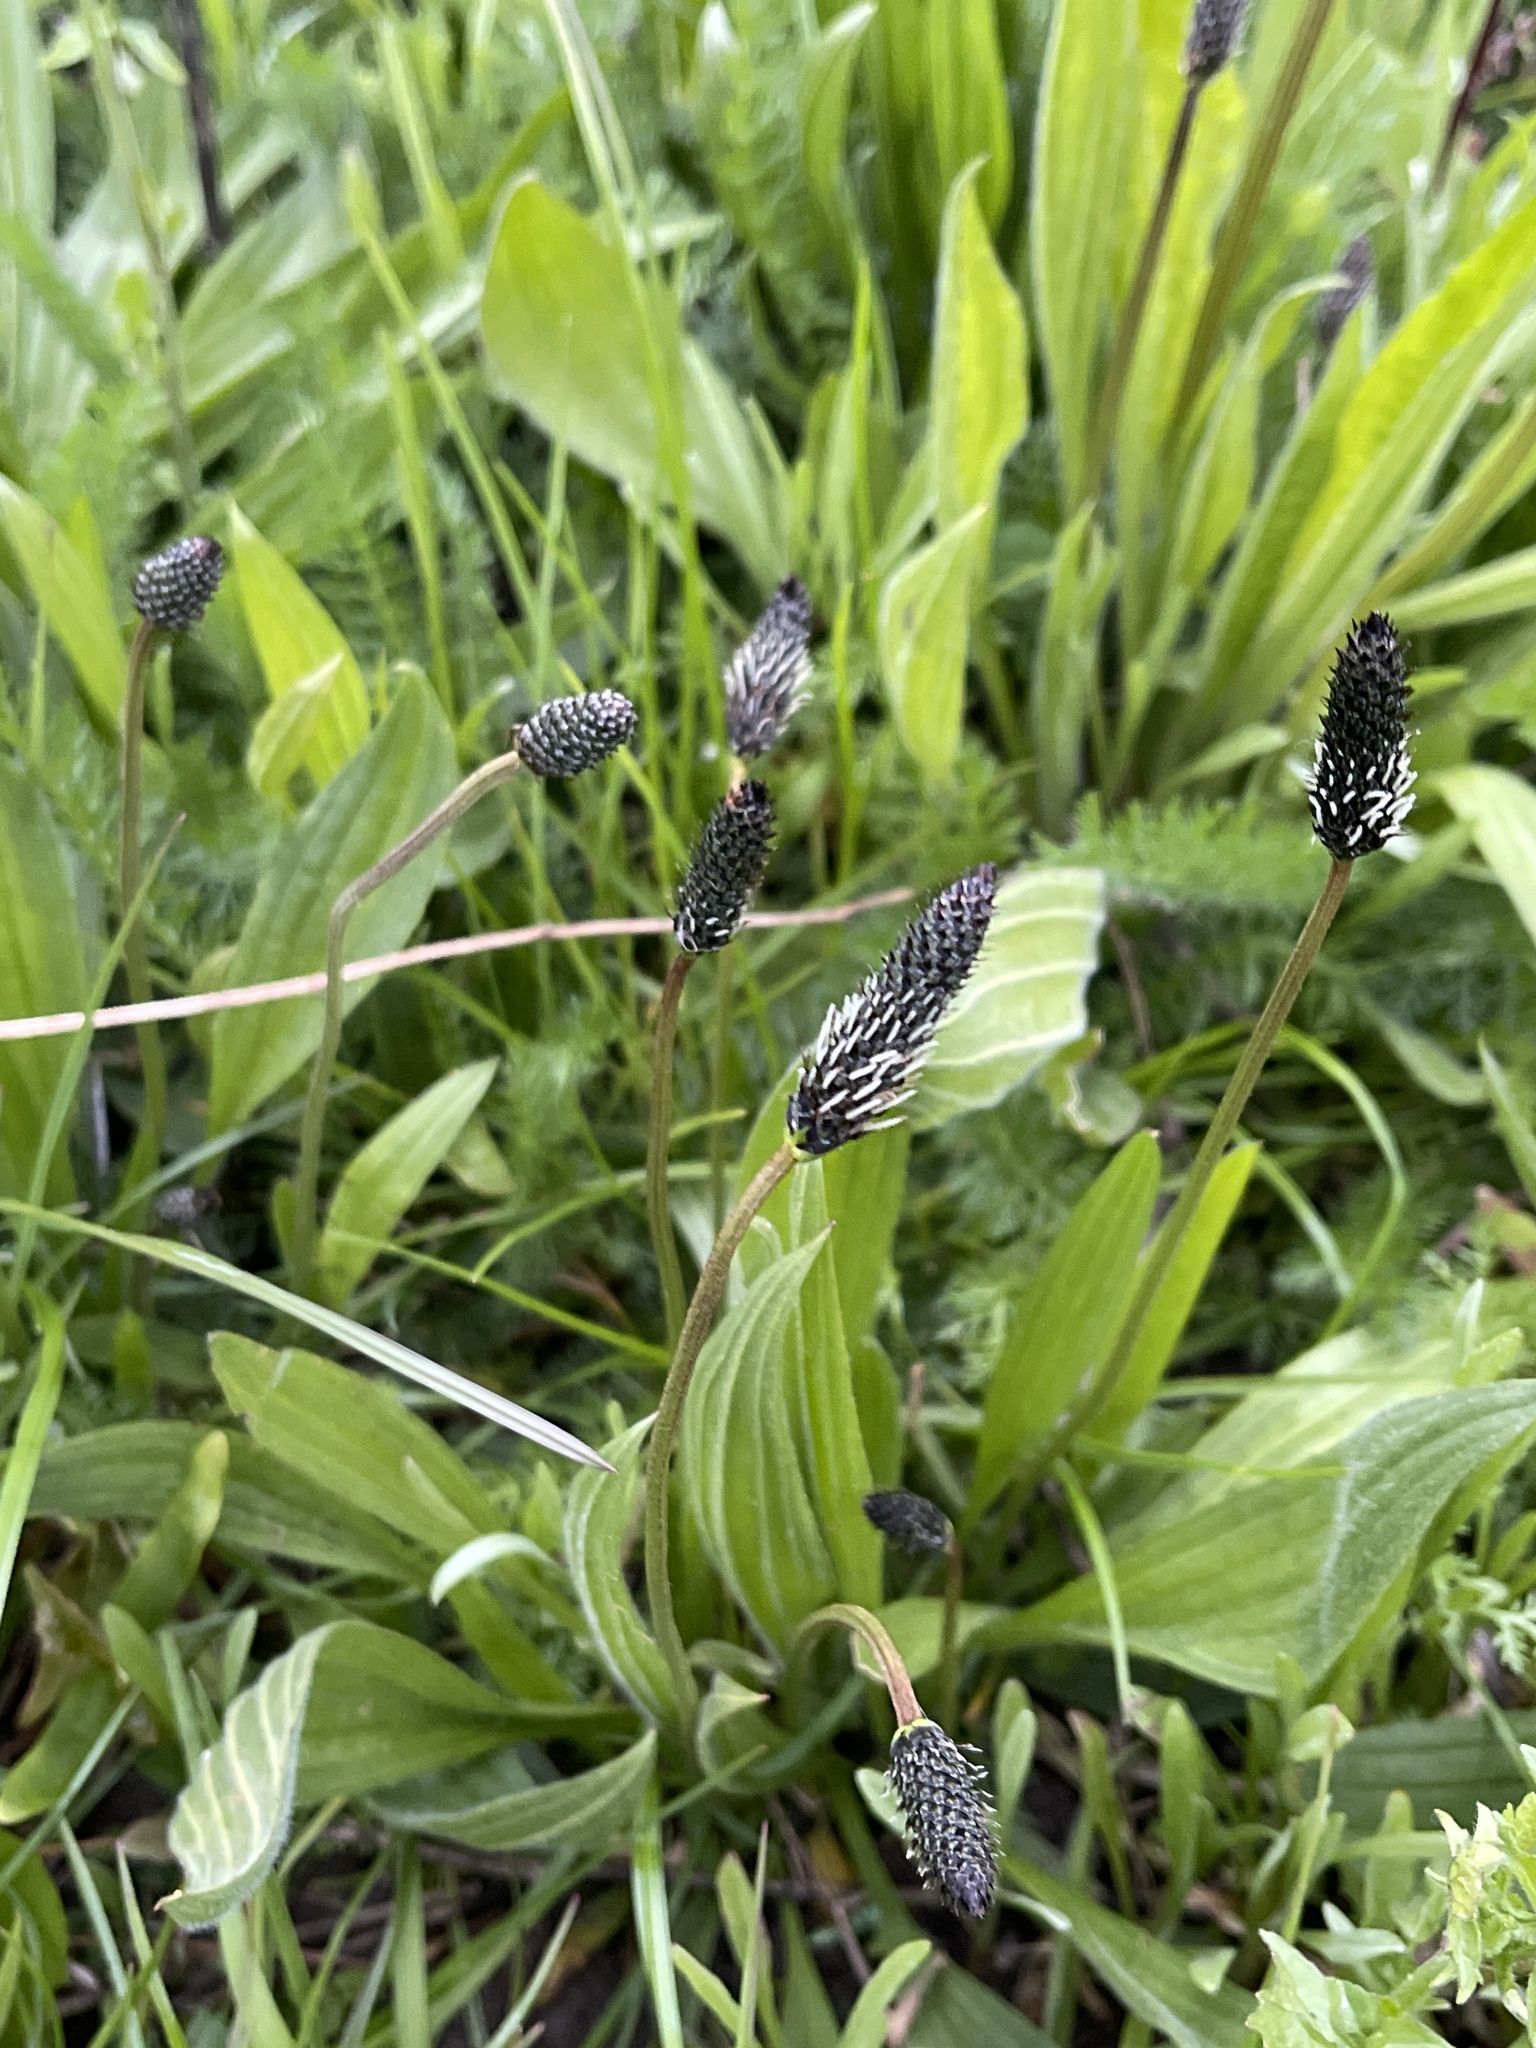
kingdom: Plantae
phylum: Tracheophyta
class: Magnoliopsida
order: Lamiales
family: Plantaginaceae
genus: Plantago
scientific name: Plantago lanceolata
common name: Ribwort plantain
